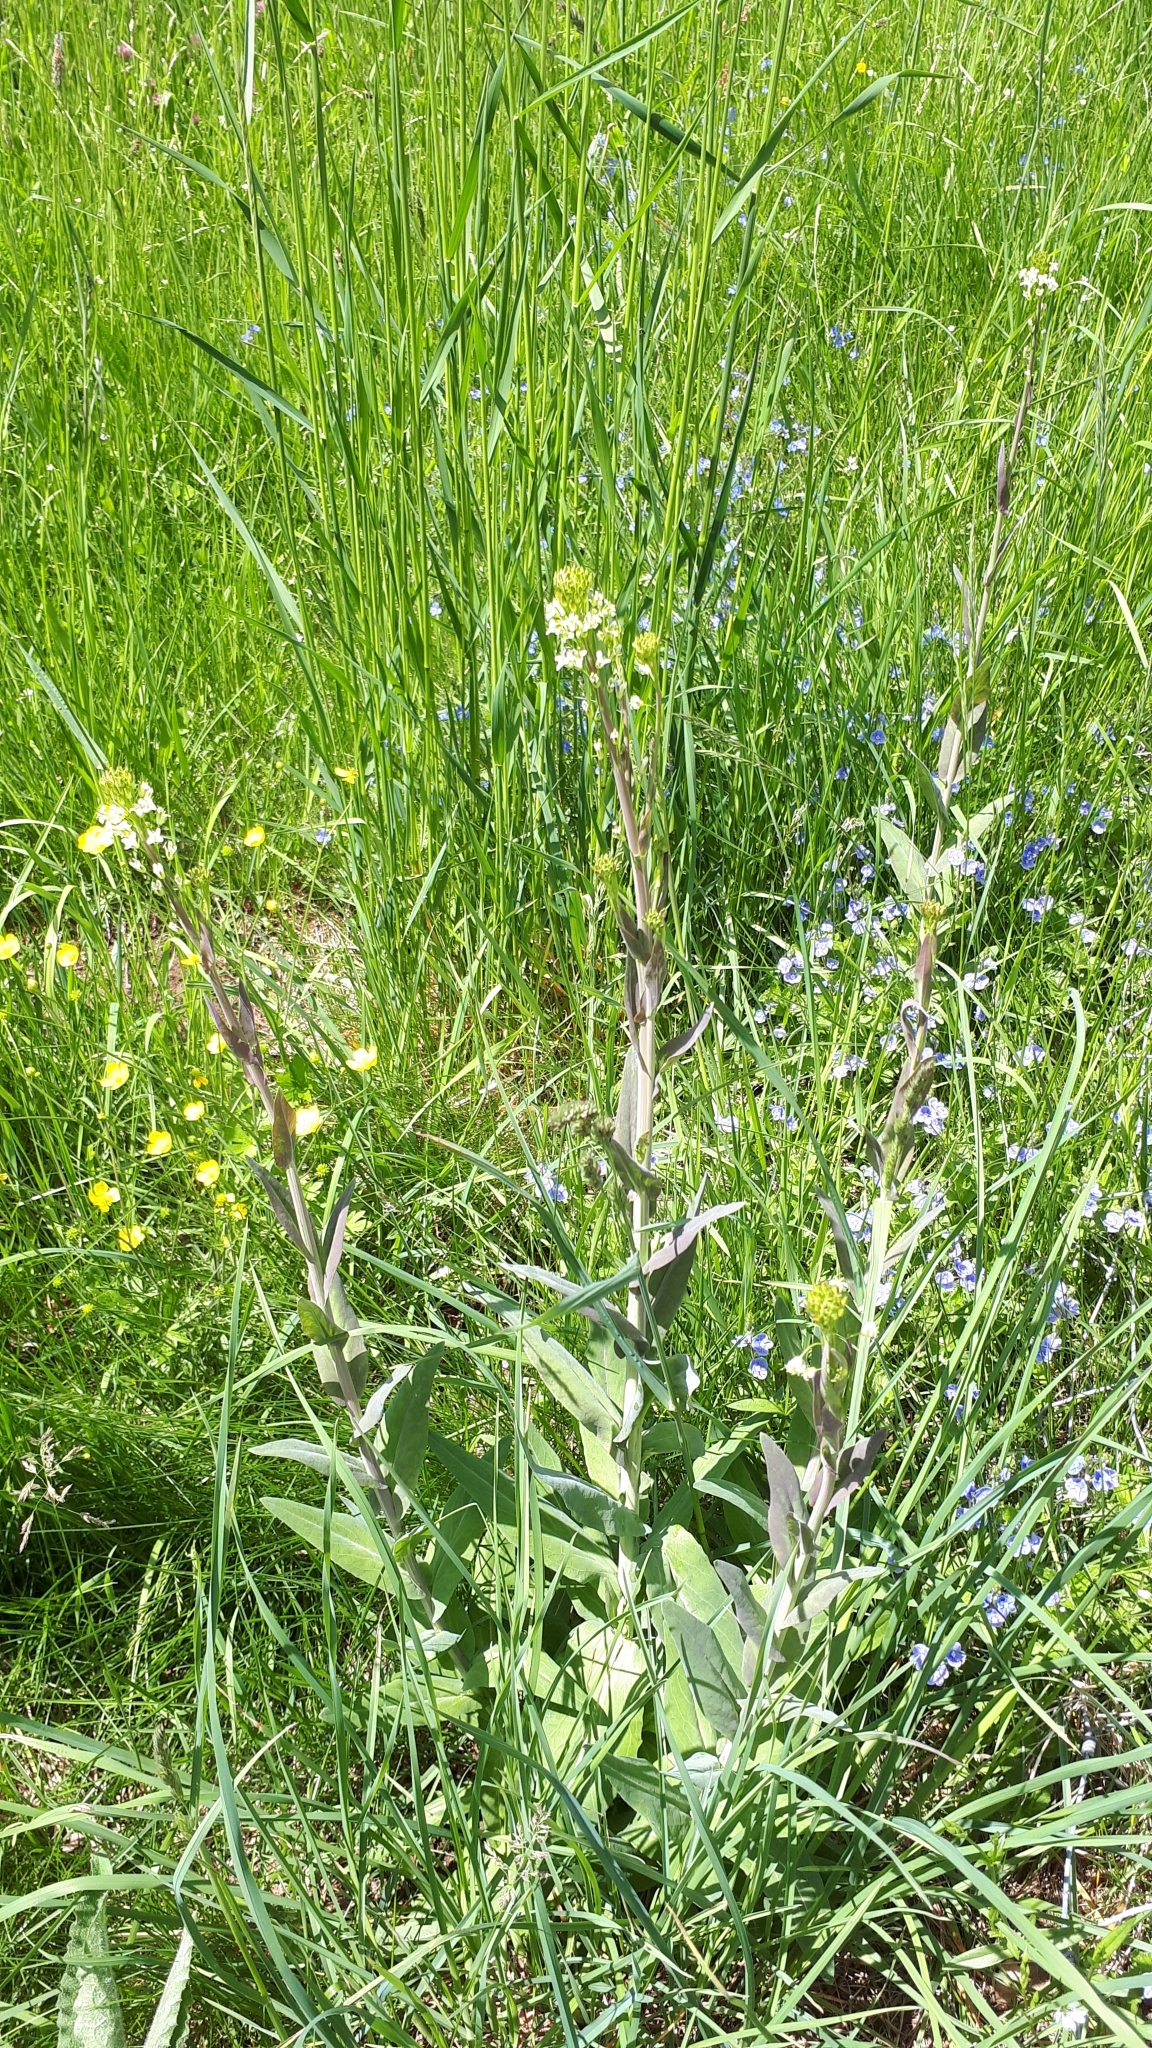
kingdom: Plantae
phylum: Tracheophyta
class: Magnoliopsida
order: Brassicales
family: Brassicaceae
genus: Turritis
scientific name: Turritis glabra
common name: Tower rockcress
